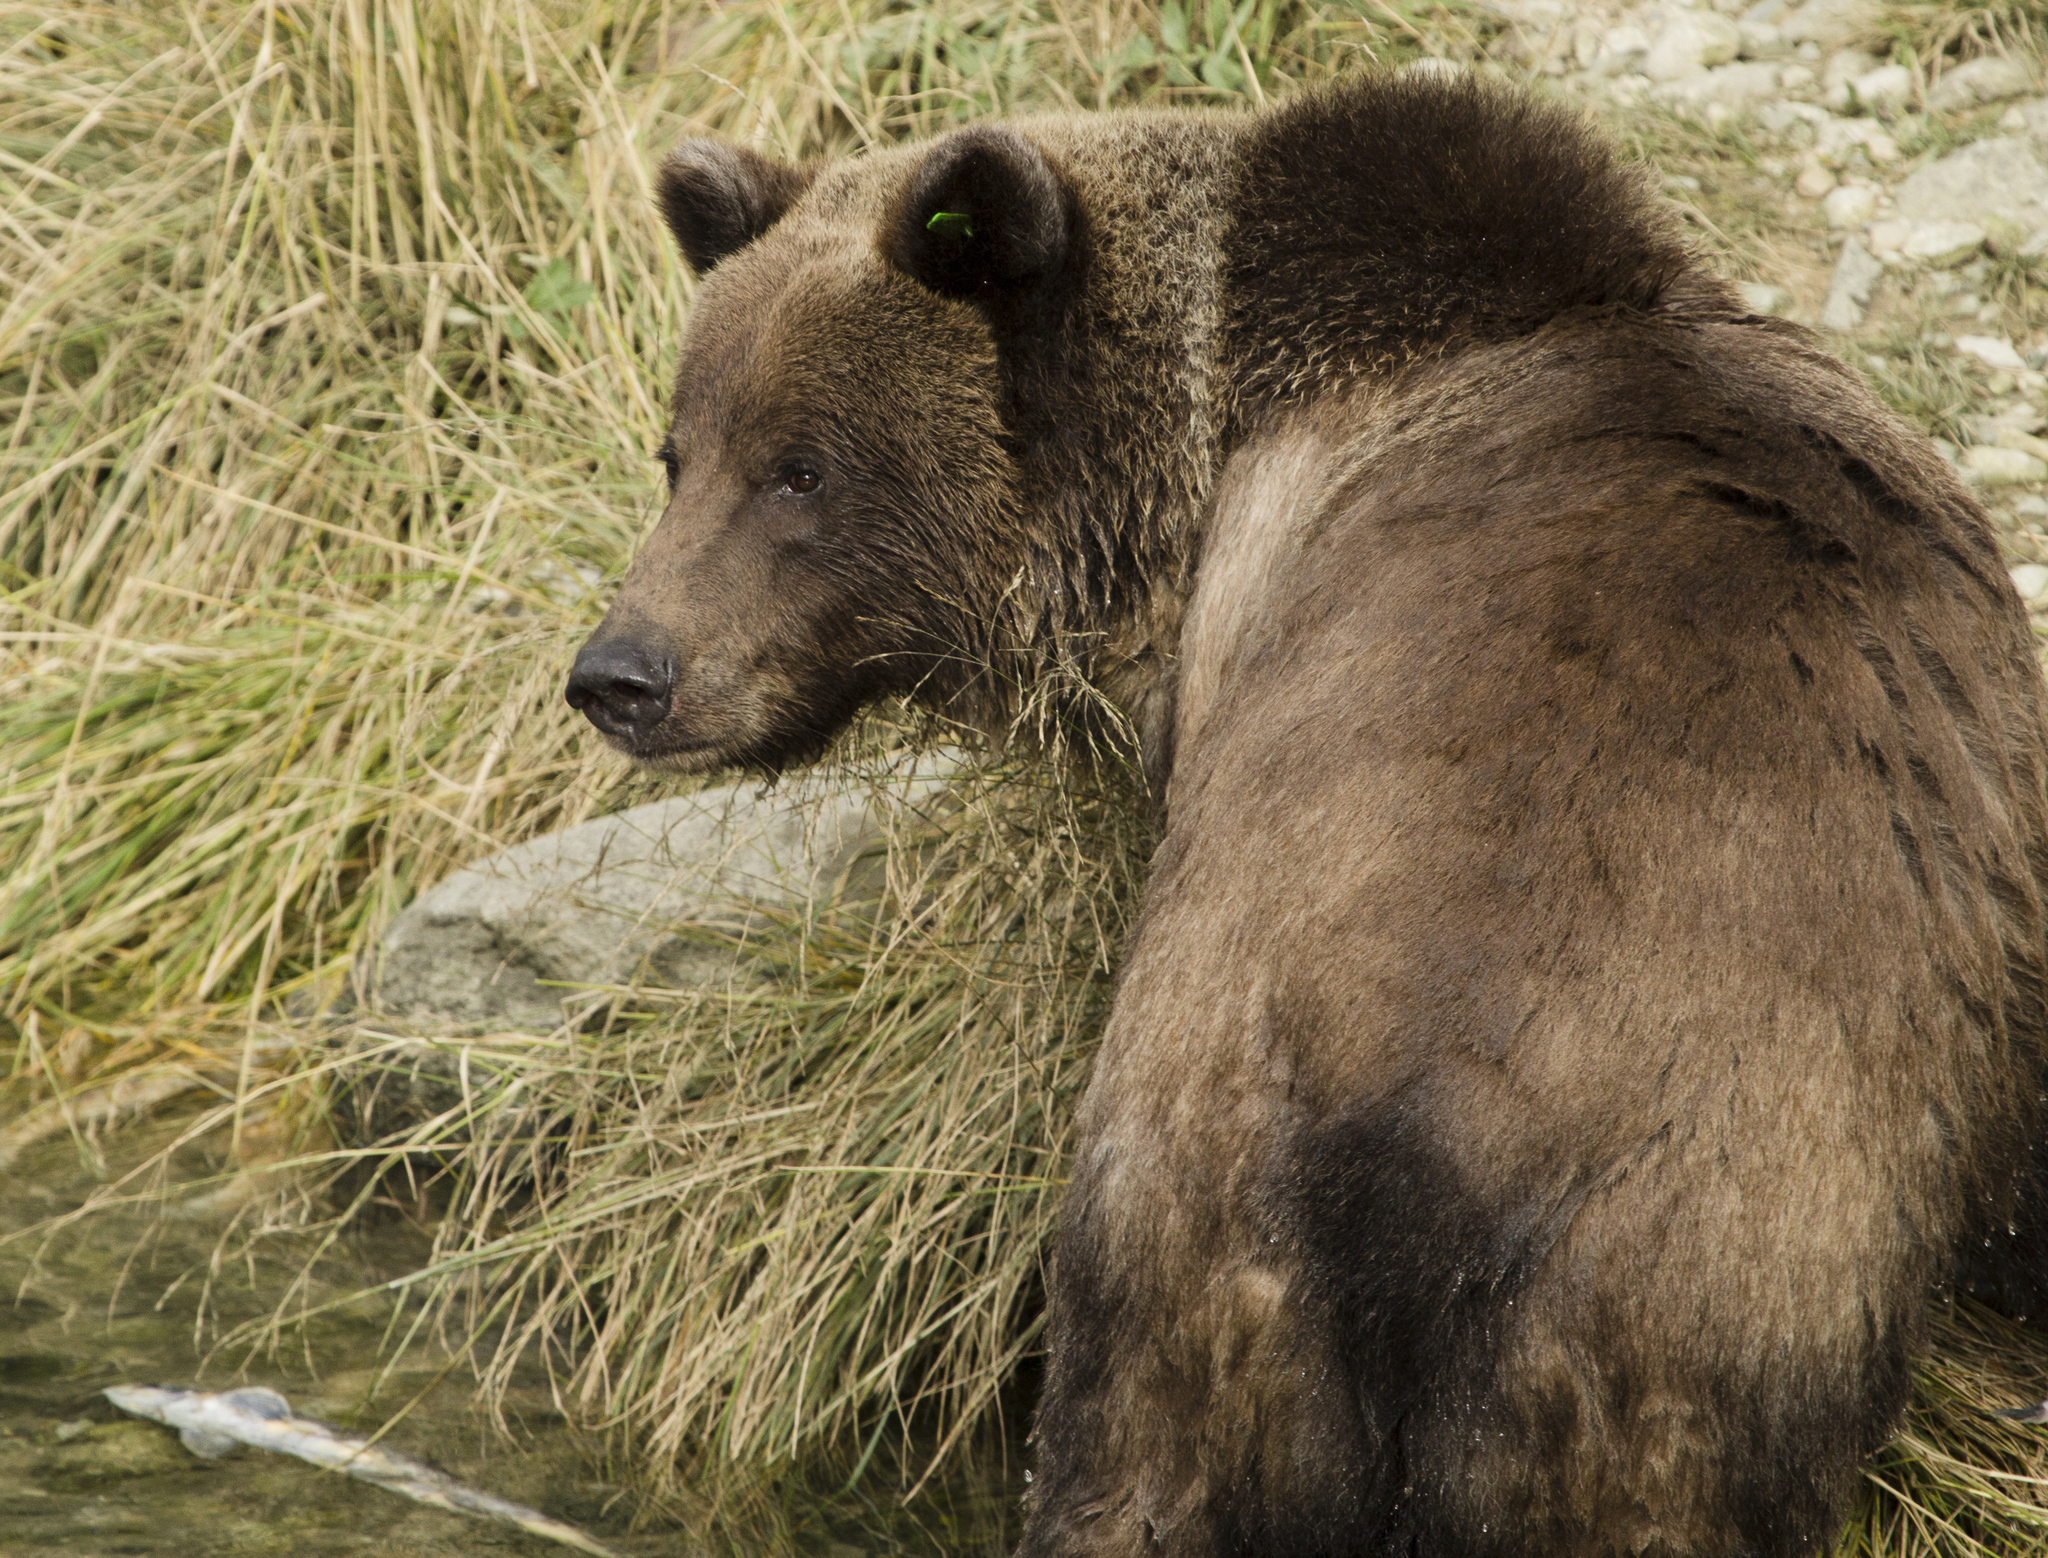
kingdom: Animalia
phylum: Chordata
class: Mammalia
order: Carnivora
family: Ursidae
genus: Ursus
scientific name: Ursus arctos
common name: Brown bear
